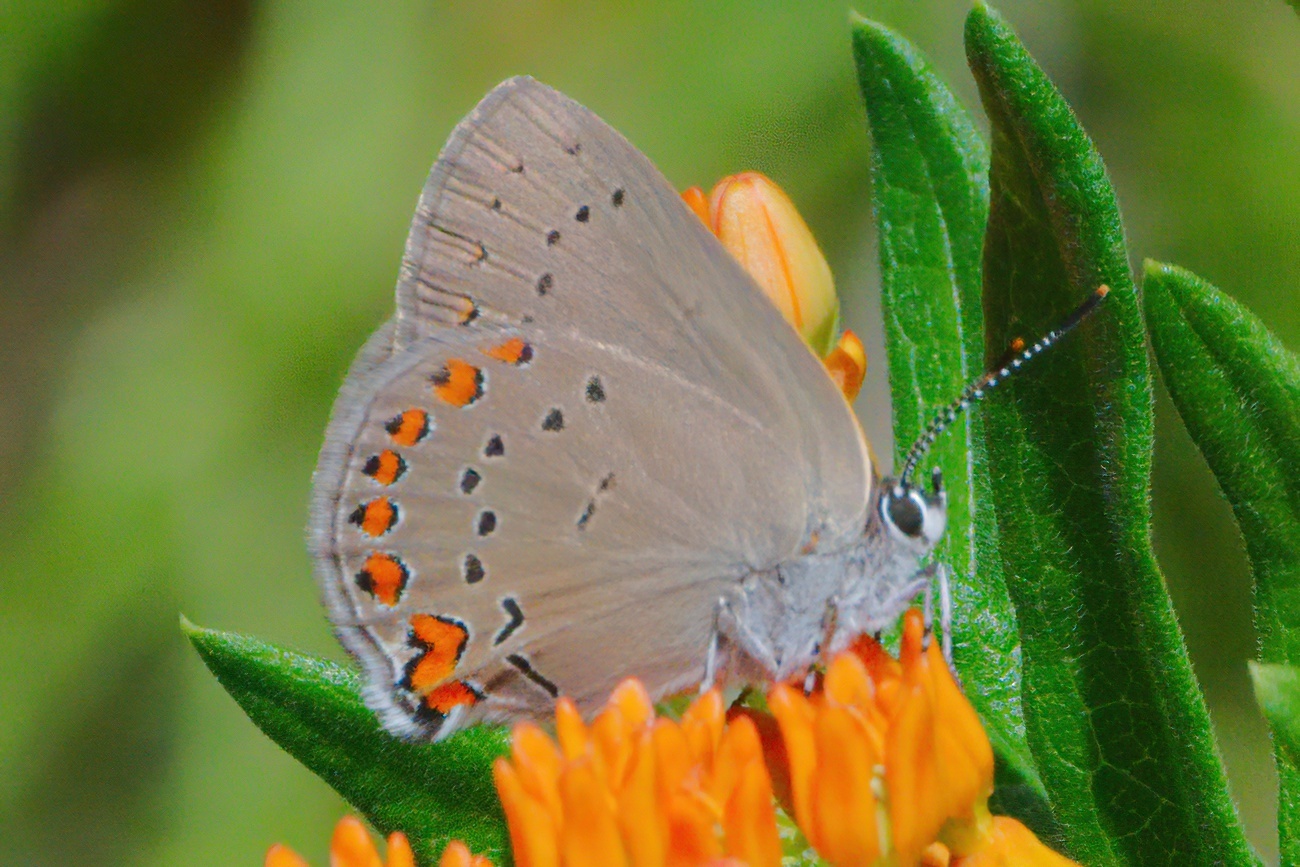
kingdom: Animalia
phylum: Arthropoda
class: Insecta
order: Lepidoptera
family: Lycaenidae
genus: Harkenclenus
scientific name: Harkenclenus titus
